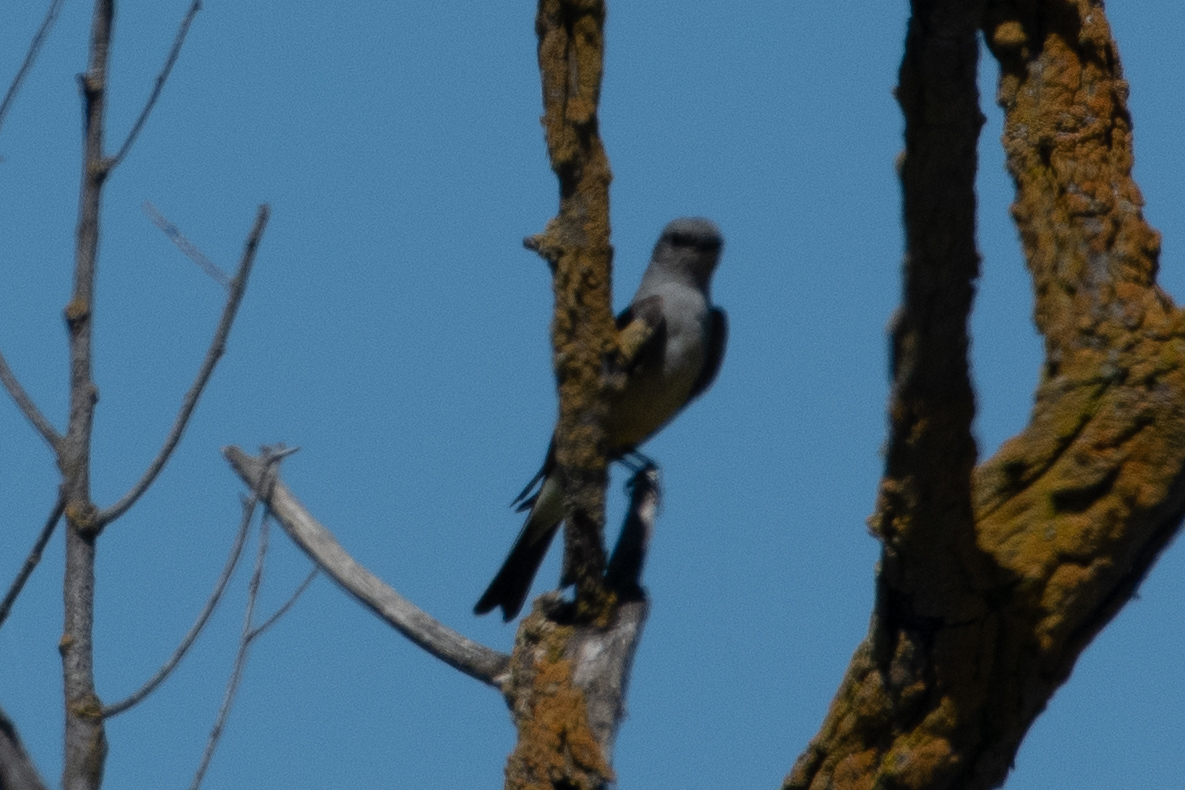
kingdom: Animalia
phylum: Chordata
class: Aves
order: Passeriformes
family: Tyrannidae
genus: Tyrannus
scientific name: Tyrannus verticalis
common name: Western kingbird
